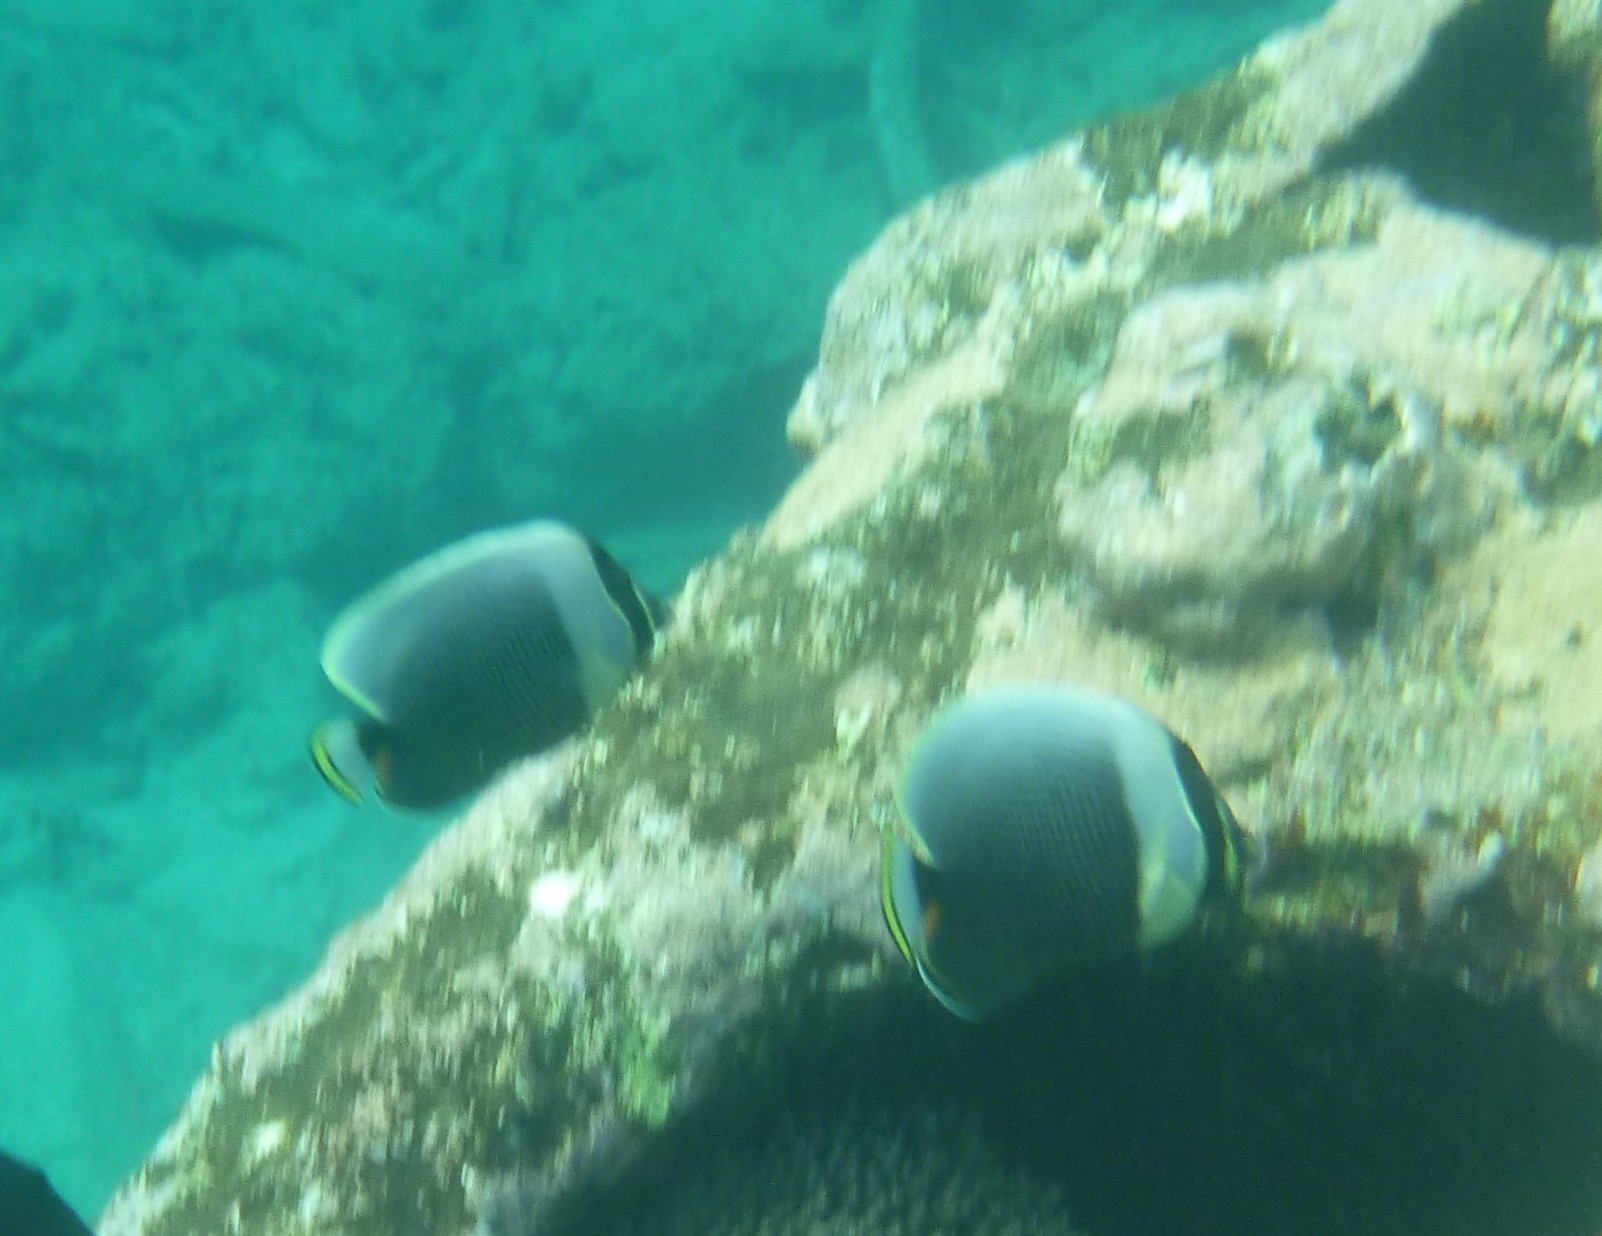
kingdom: Animalia
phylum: Chordata
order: Perciformes
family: Chaetodontidae
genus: Chaetodon
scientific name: Chaetodon reticulatus
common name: Reticulated butterflyfish
